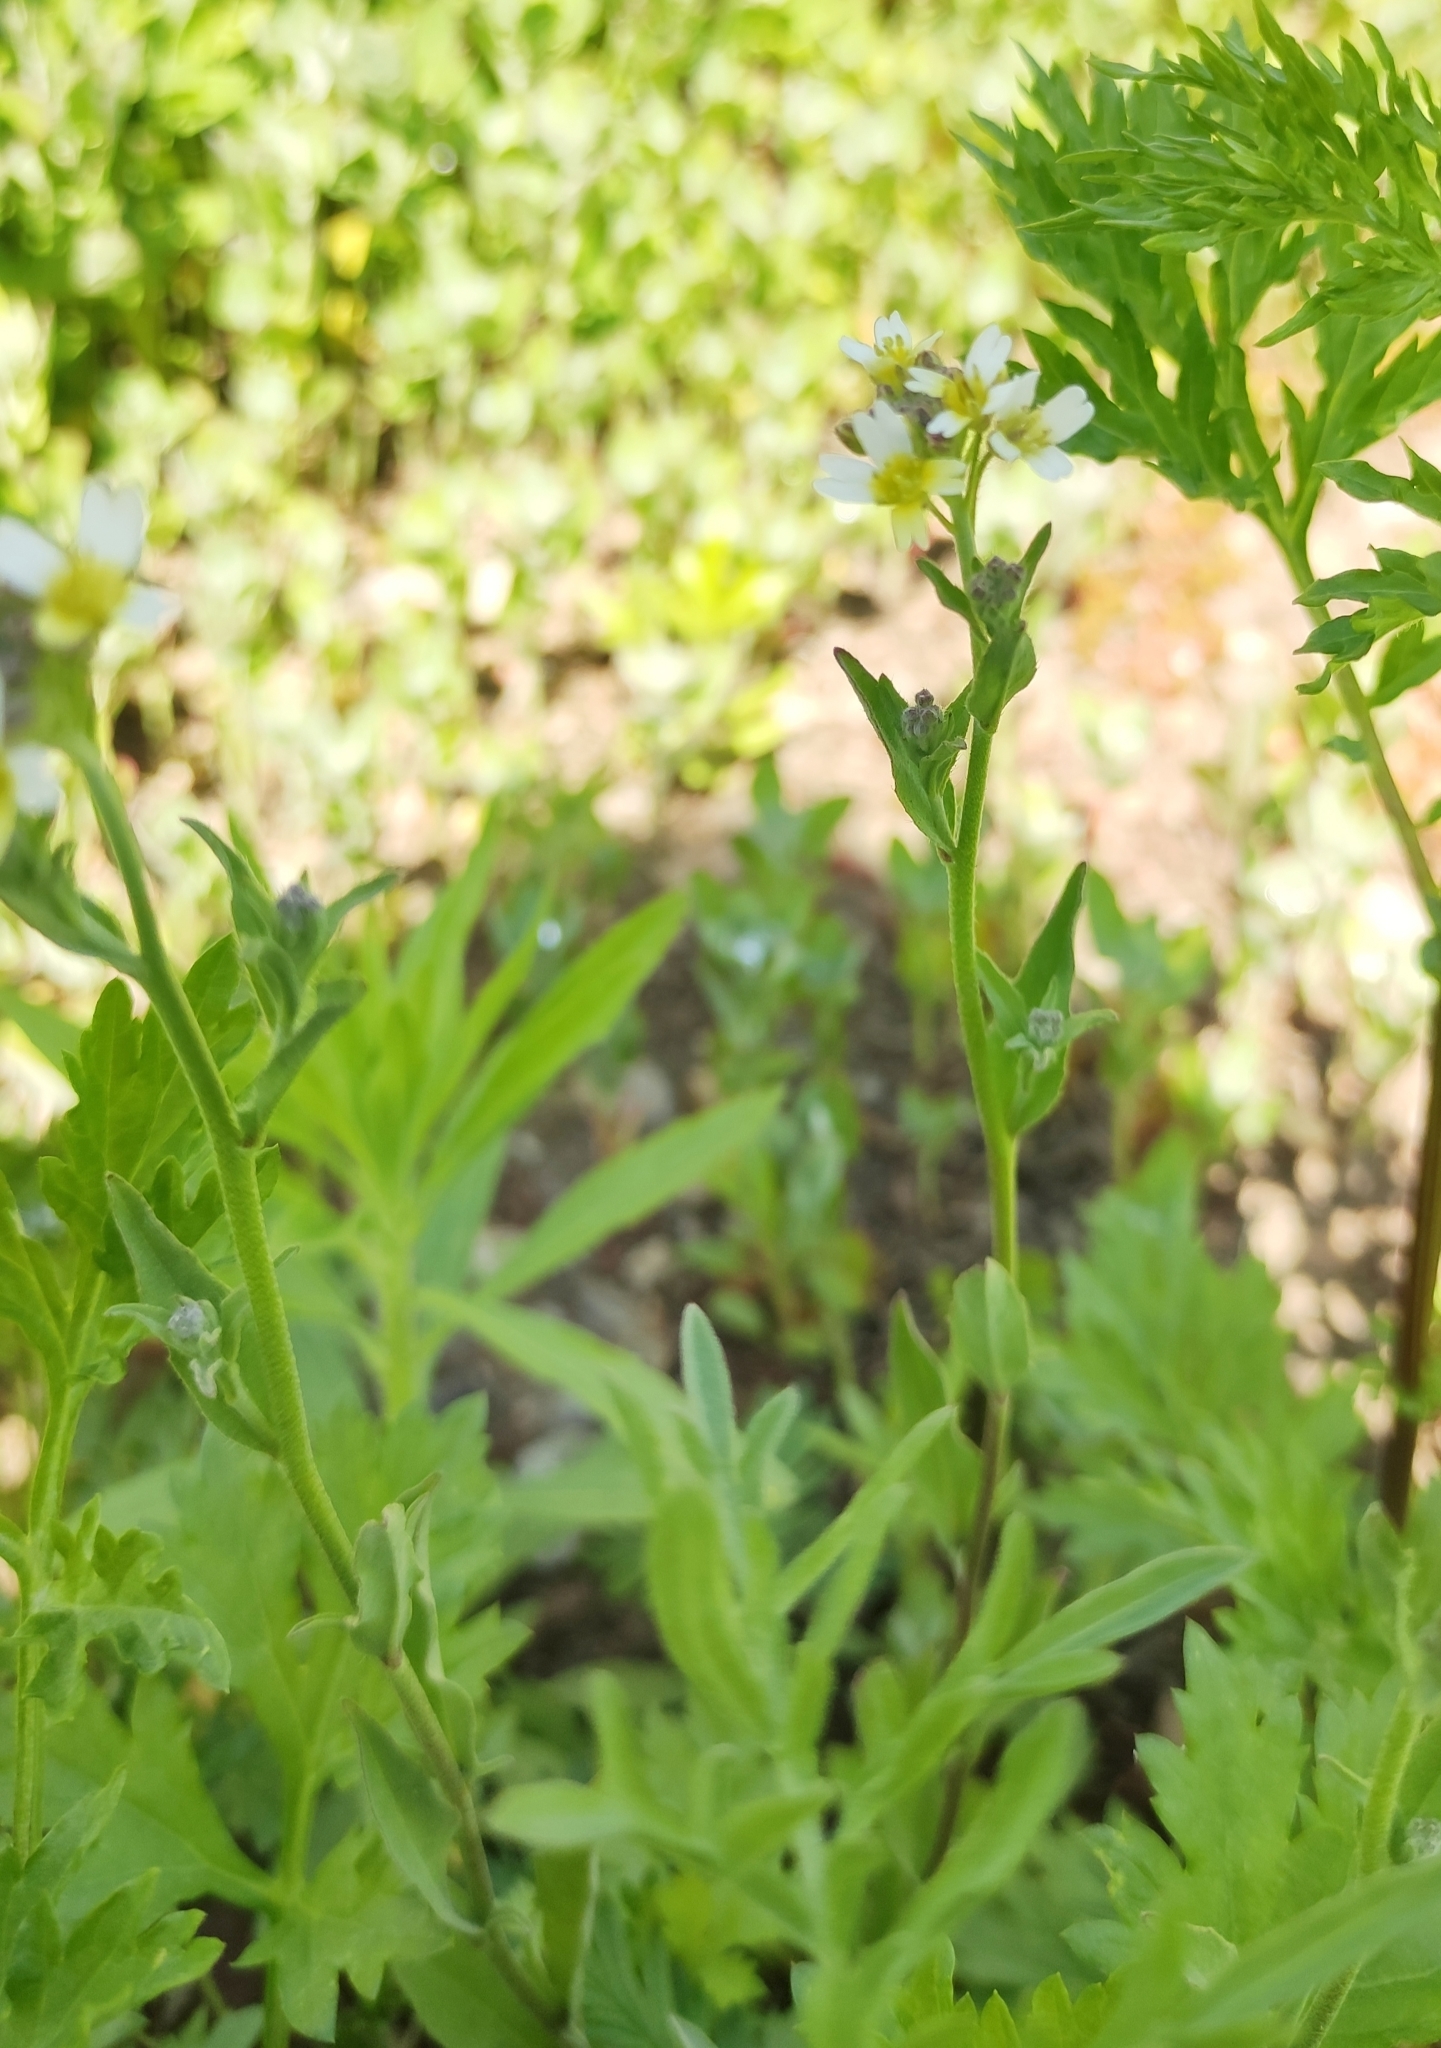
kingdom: Plantae
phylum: Tracheophyta
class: Magnoliopsida
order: Brassicales
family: Brassicaceae
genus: Berteroa
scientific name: Berteroa incana
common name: Hoary alison
